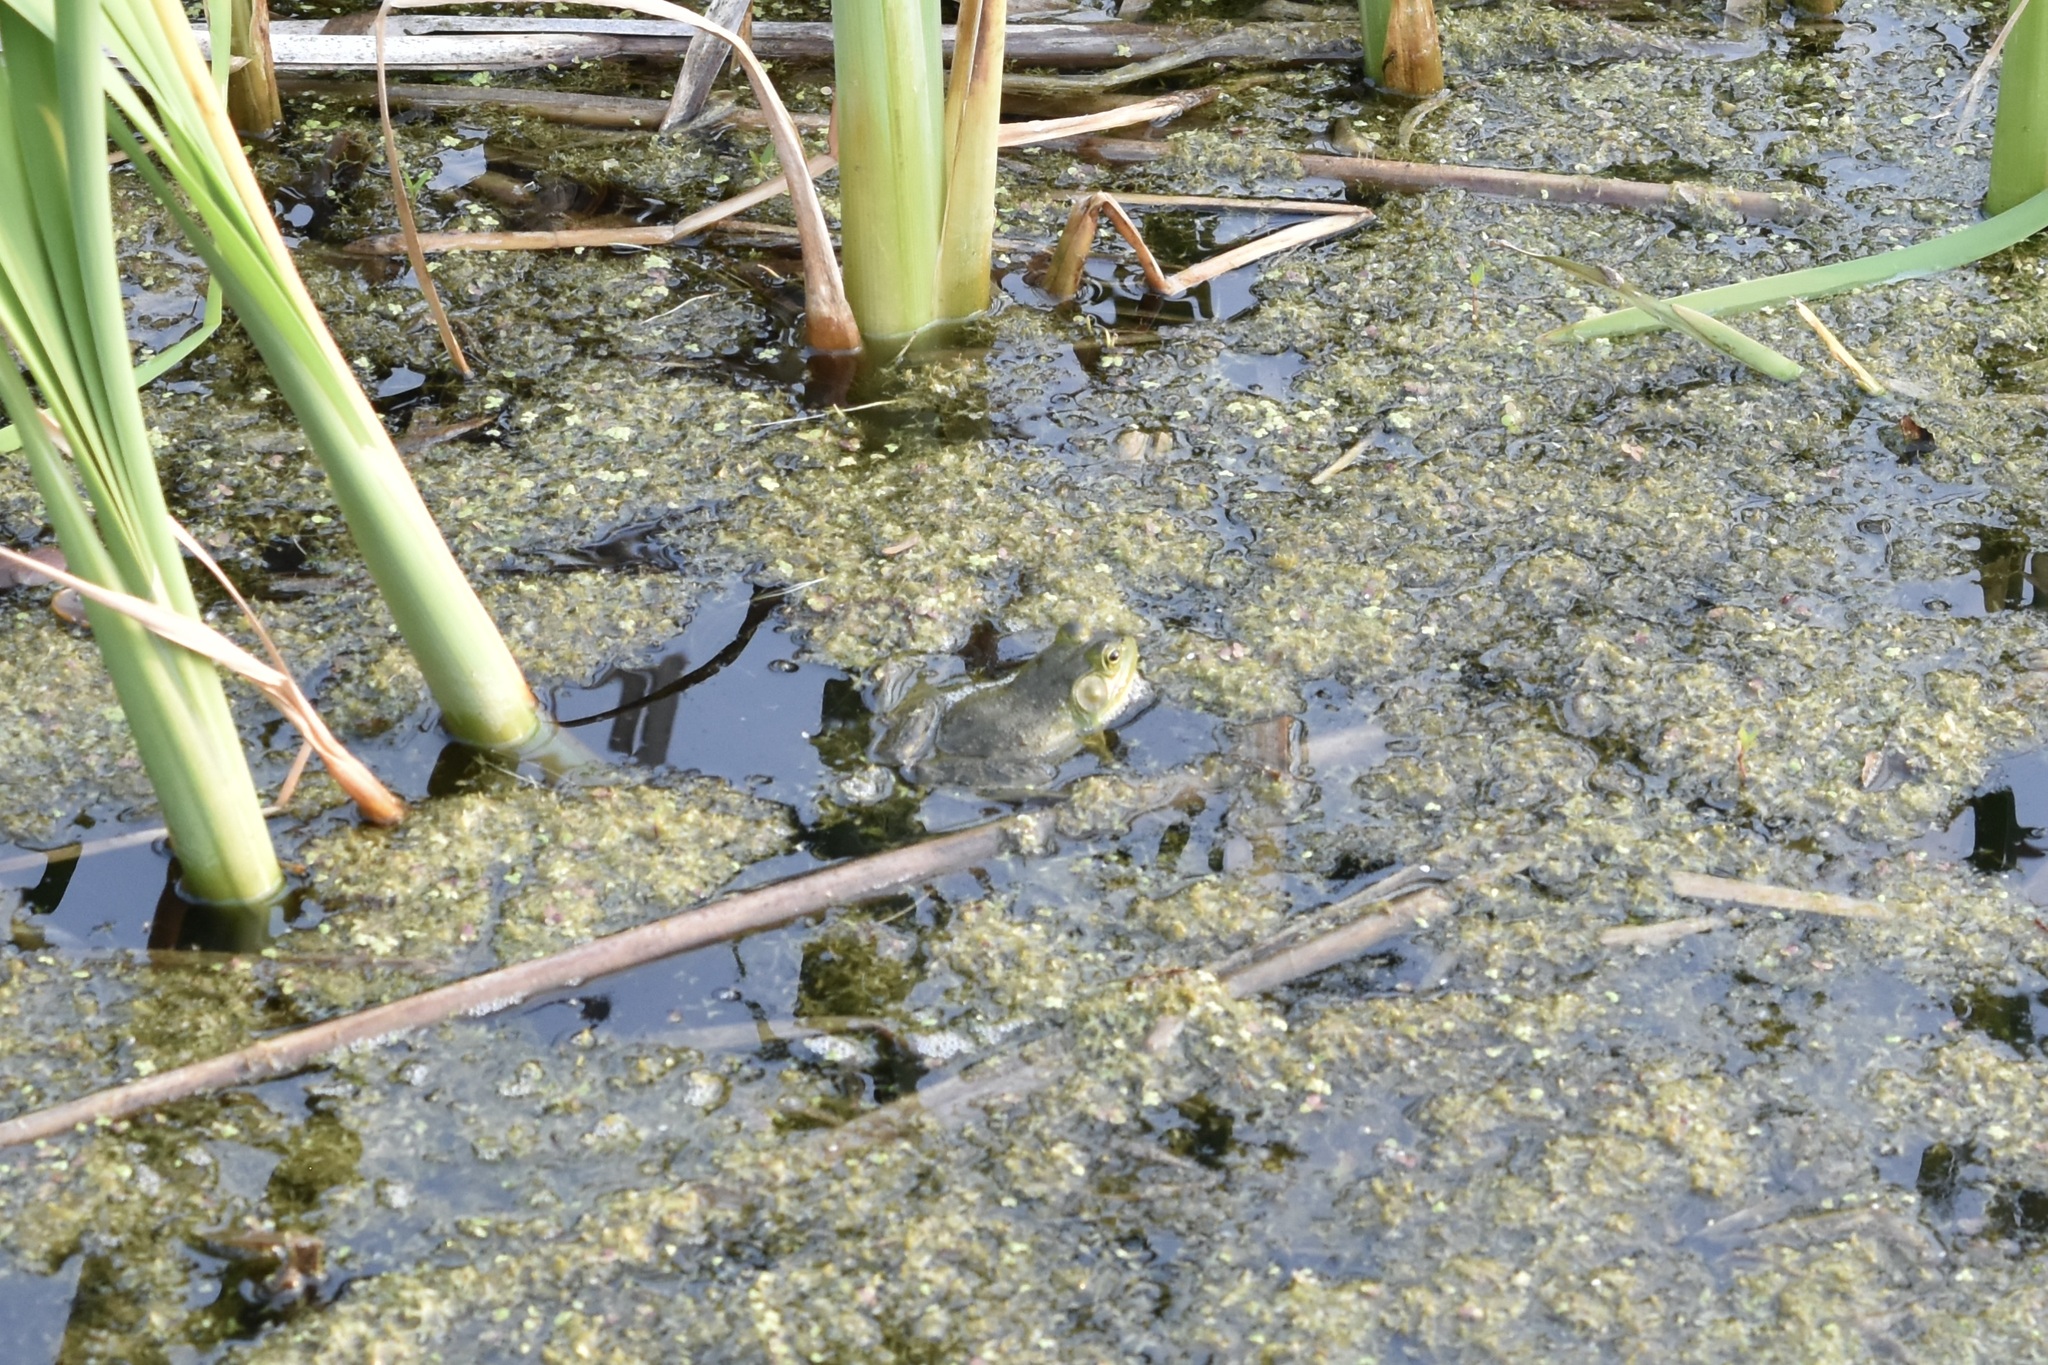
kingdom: Animalia
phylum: Chordata
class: Amphibia
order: Anura
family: Ranidae
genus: Lithobates
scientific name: Lithobates catesbeianus
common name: American bullfrog
